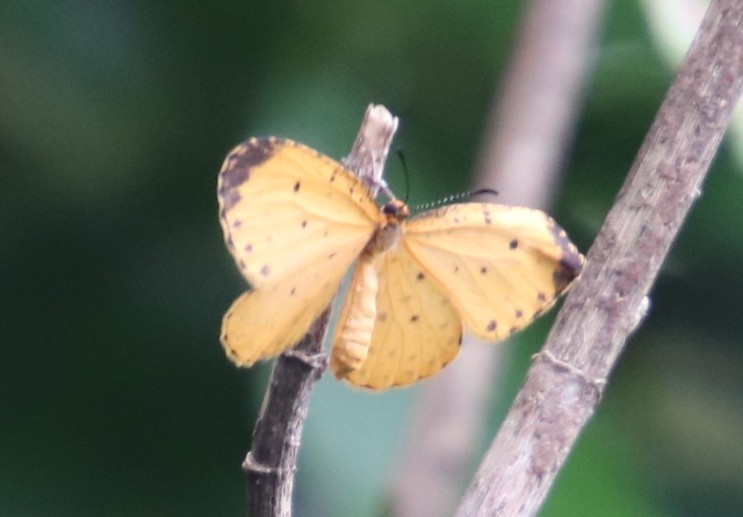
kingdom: Animalia
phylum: Arthropoda
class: Insecta
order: Lepidoptera
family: Lycaenidae
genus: Pentila
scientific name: Pentila tropicalis
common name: Spotted buff
